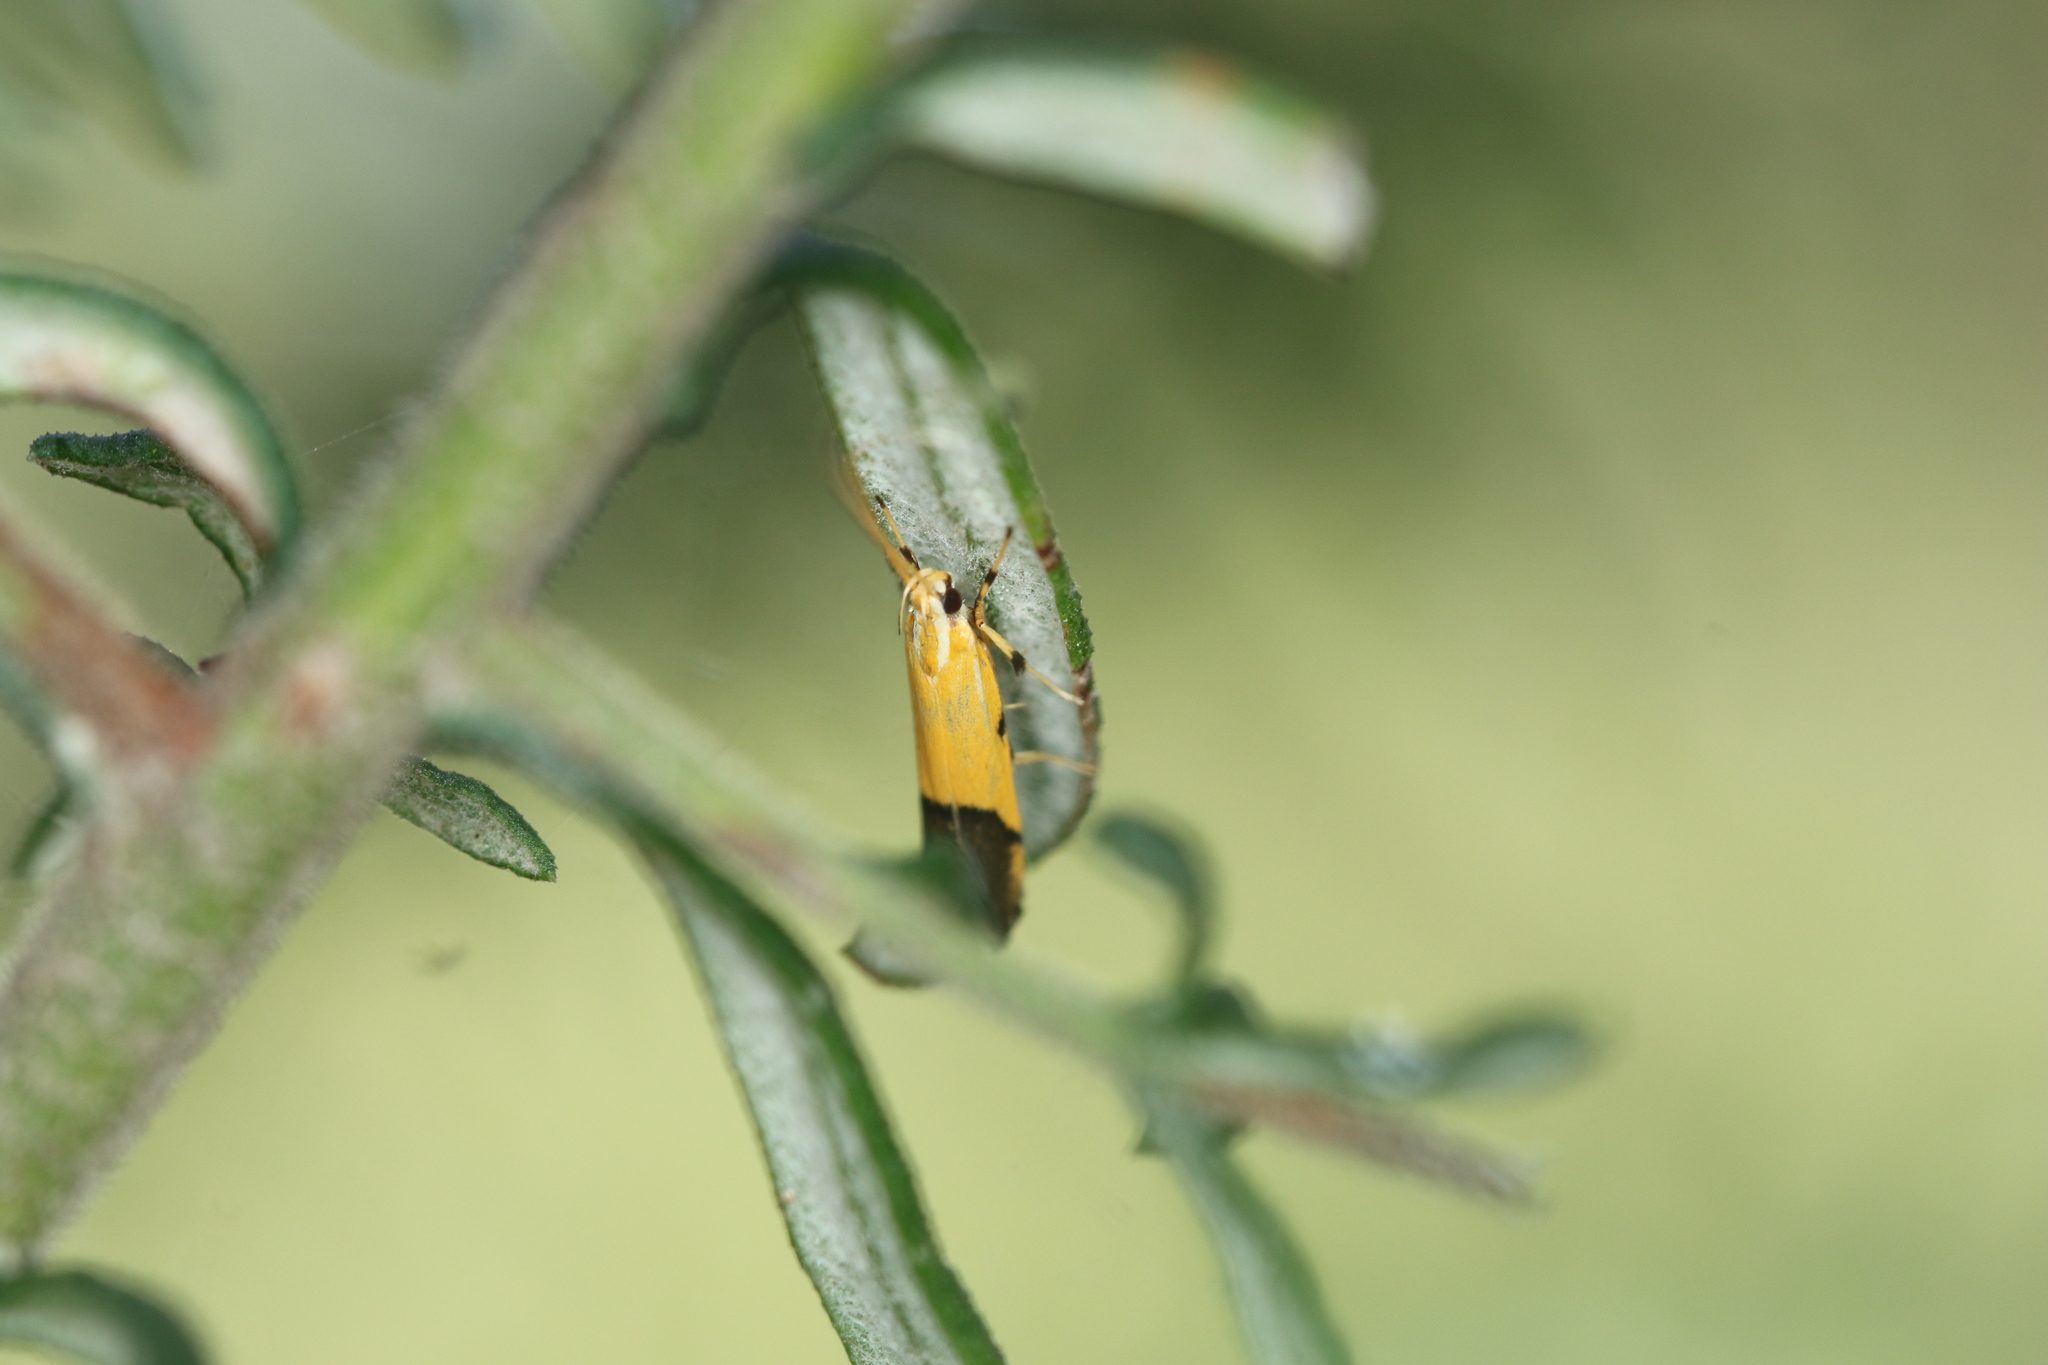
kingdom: Animalia
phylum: Arthropoda
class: Insecta
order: Lepidoptera
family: Lecithoceridae
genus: Crocanthes
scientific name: Crocanthes micradelpha
